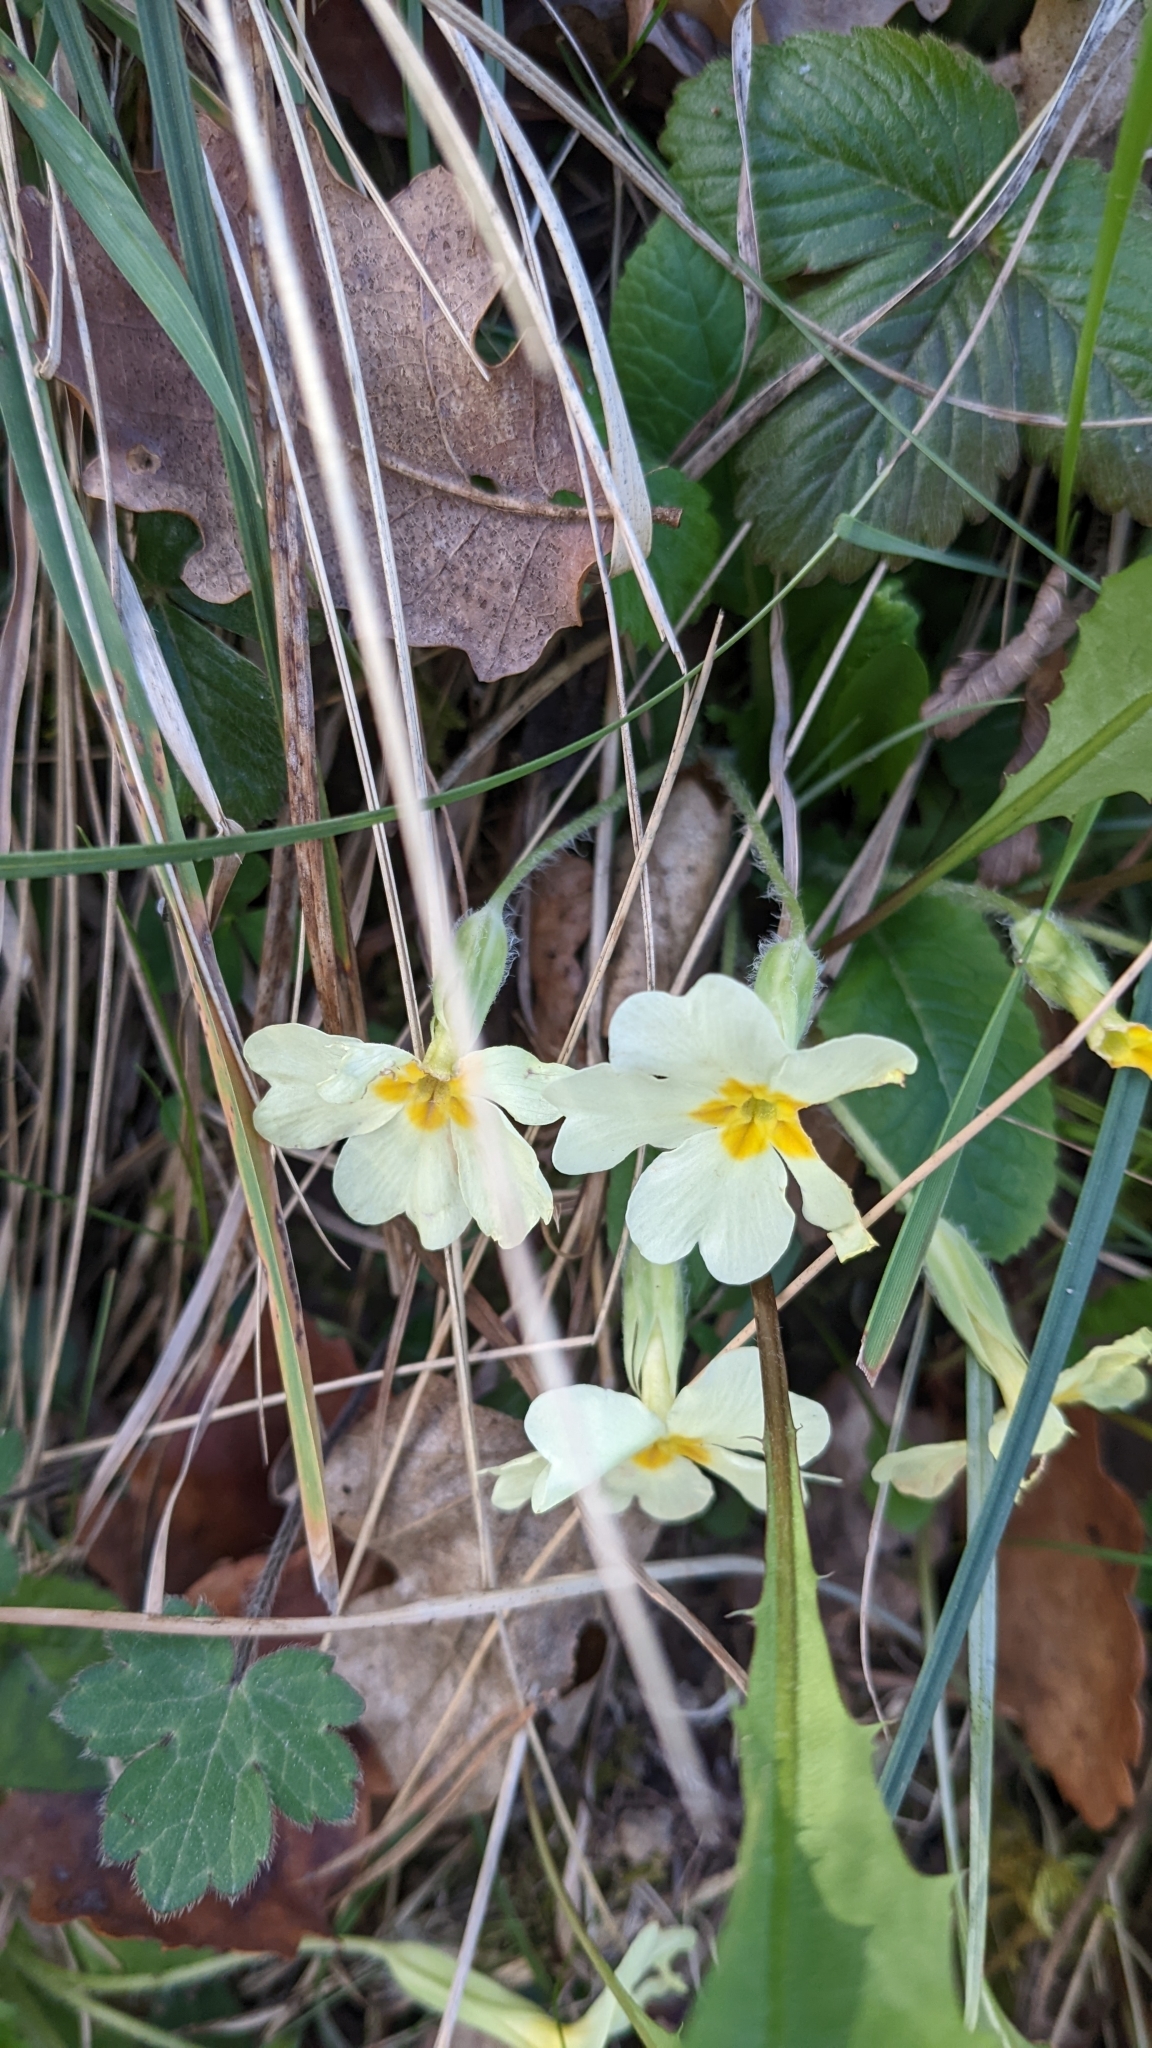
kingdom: Plantae
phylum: Tracheophyta
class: Magnoliopsida
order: Ericales
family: Primulaceae
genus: Primula
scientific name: Primula vulgaris
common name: Primrose
